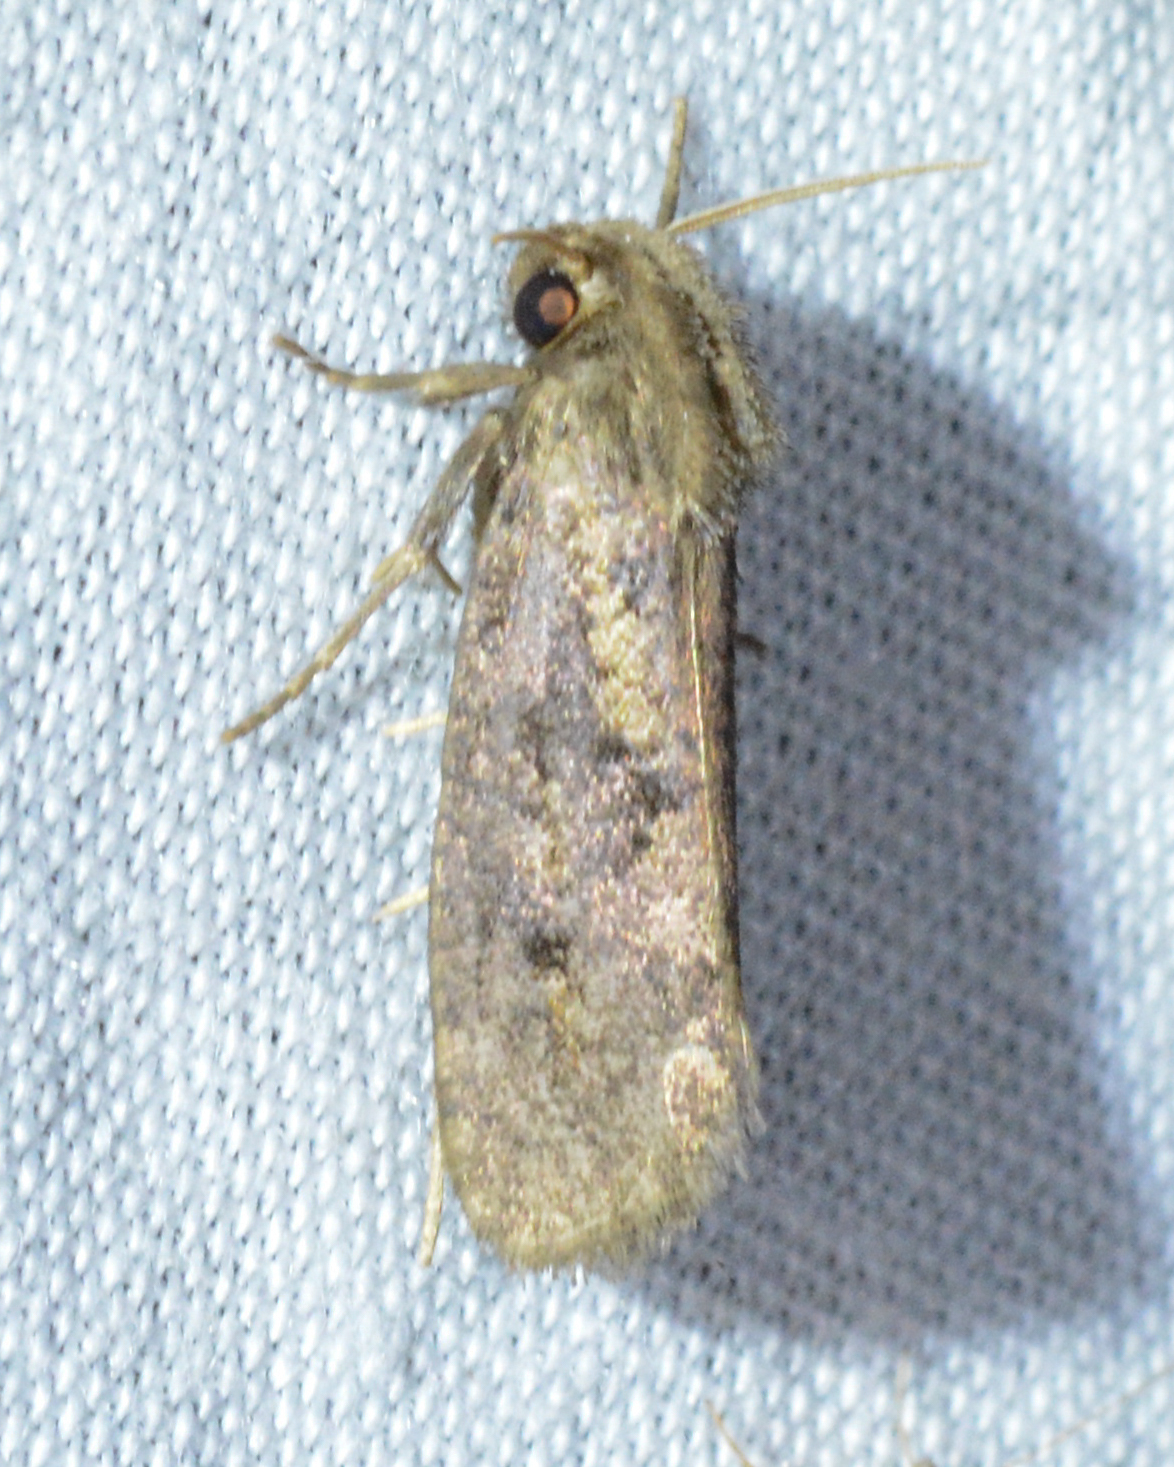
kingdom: Animalia
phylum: Arthropoda
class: Insecta
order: Lepidoptera
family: Tineidae
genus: Acrolophus
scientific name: Acrolophus popeanella
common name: Clemens' grass tubeworm moth
